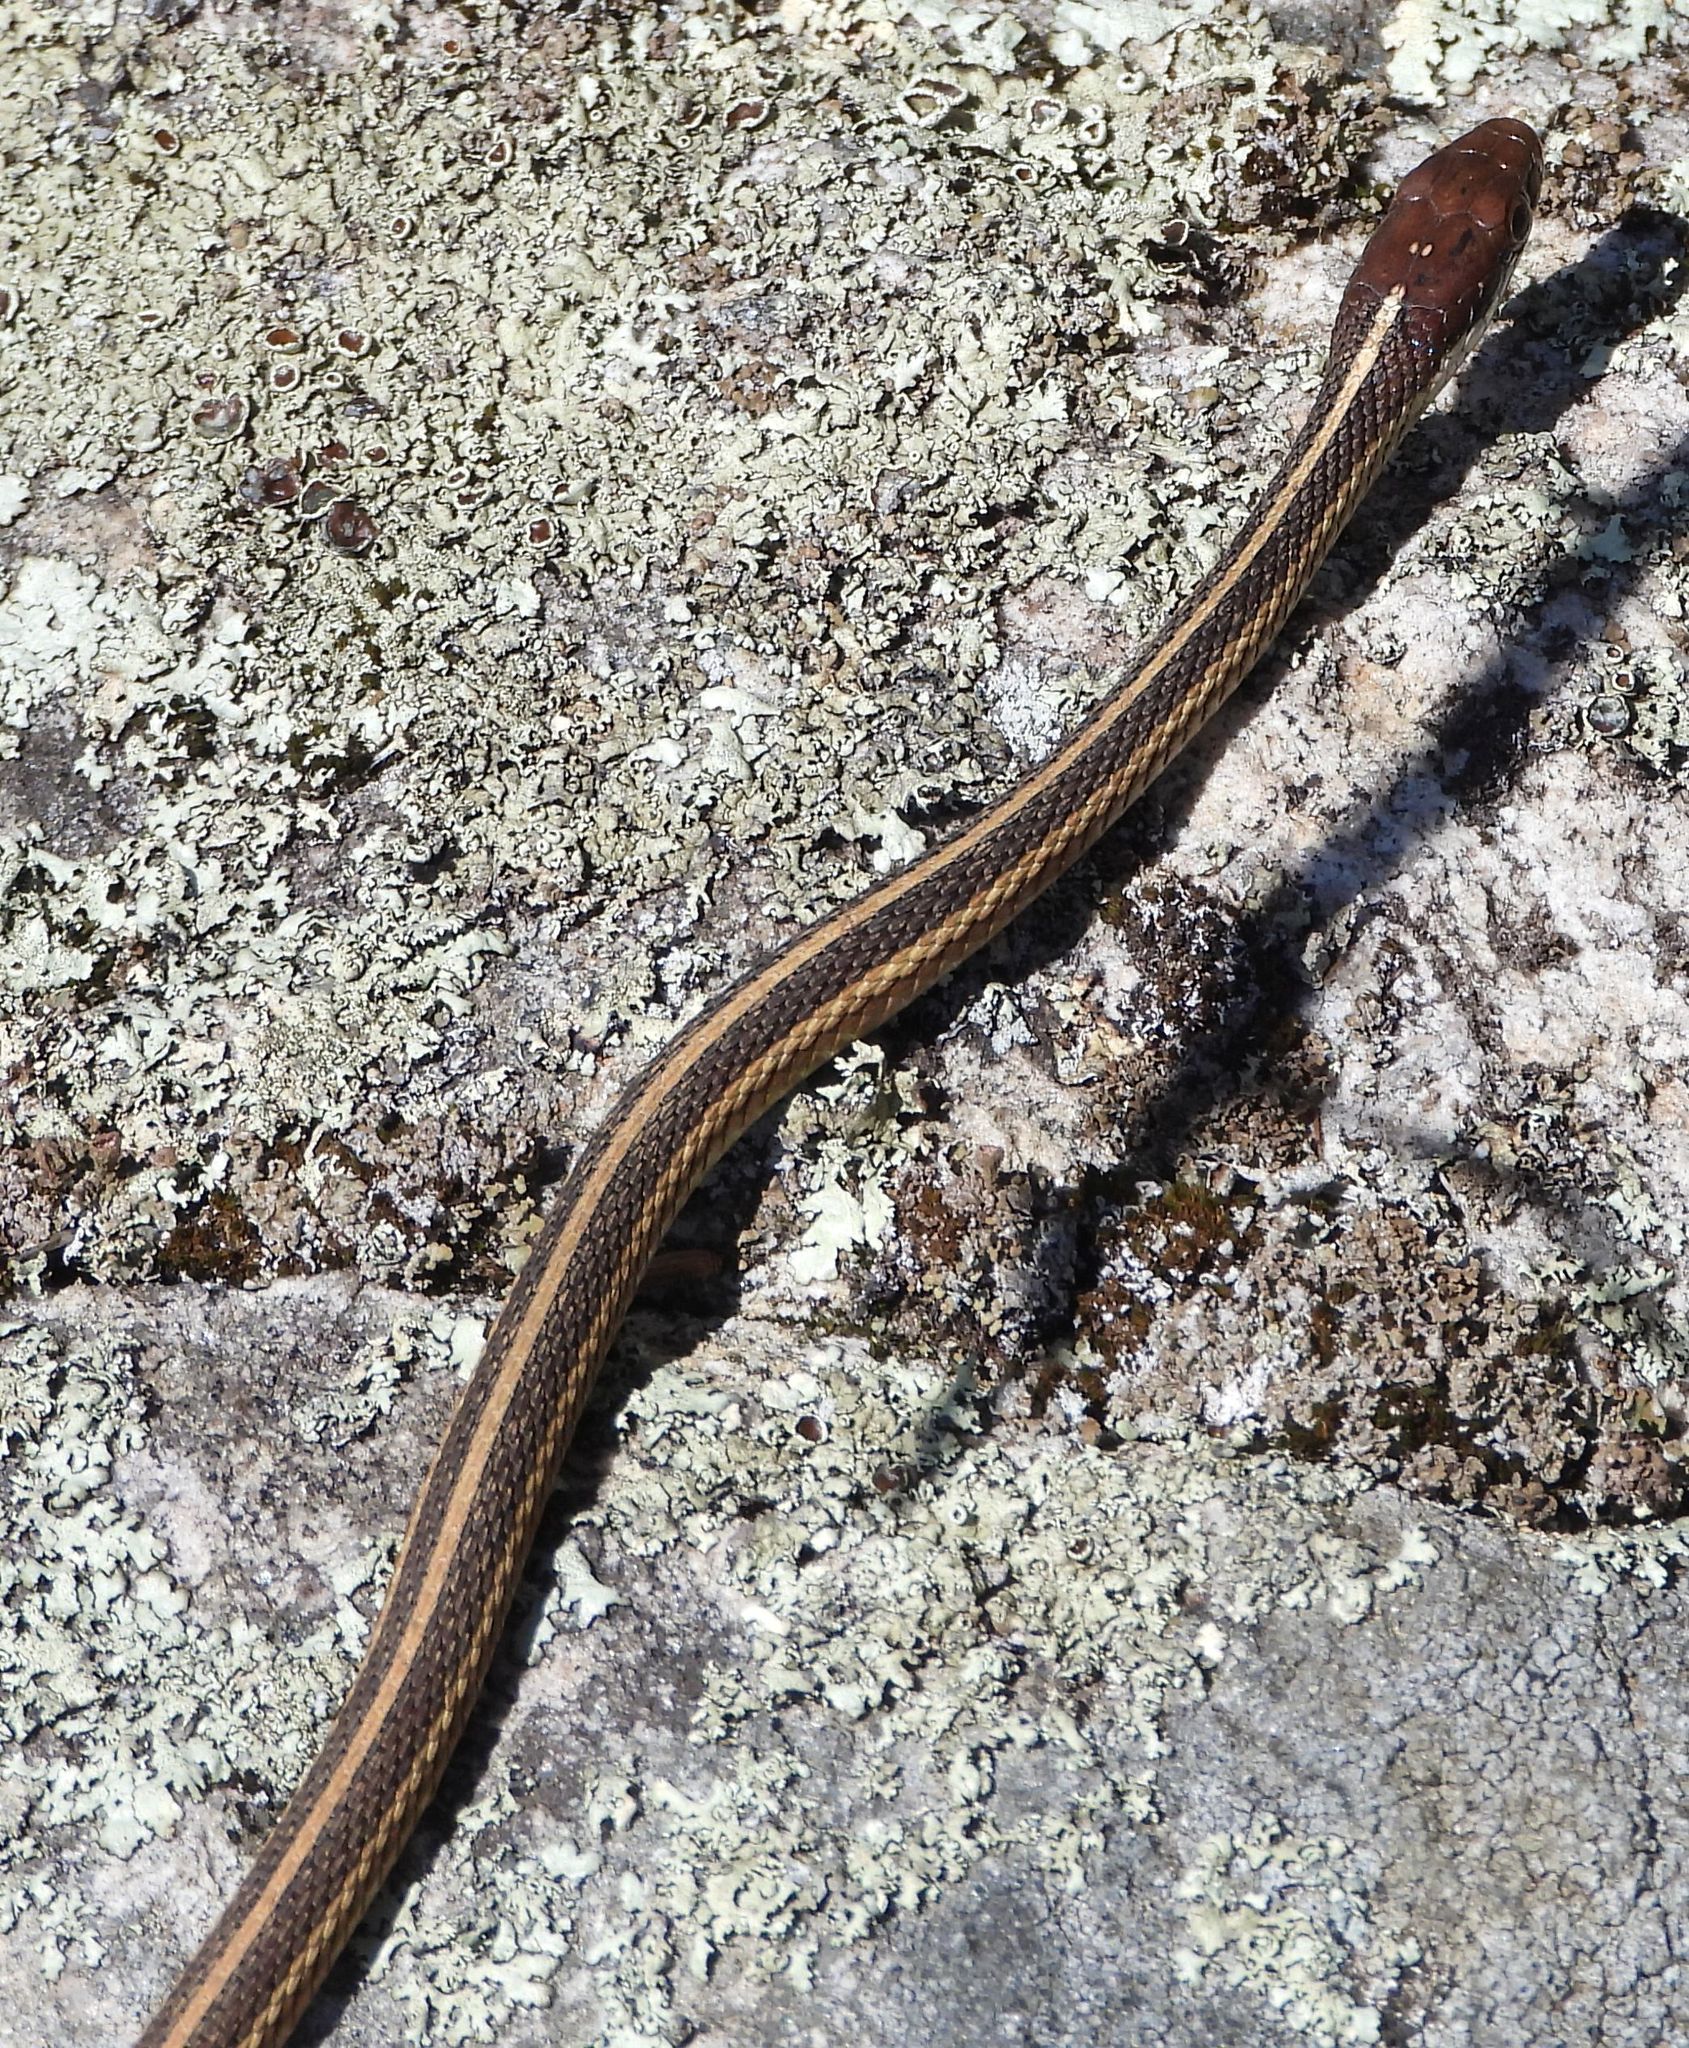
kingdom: Animalia
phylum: Chordata
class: Squamata
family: Colubridae
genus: Thamnophis
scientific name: Thamnophis saurita
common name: Eastern ribbonsnake
